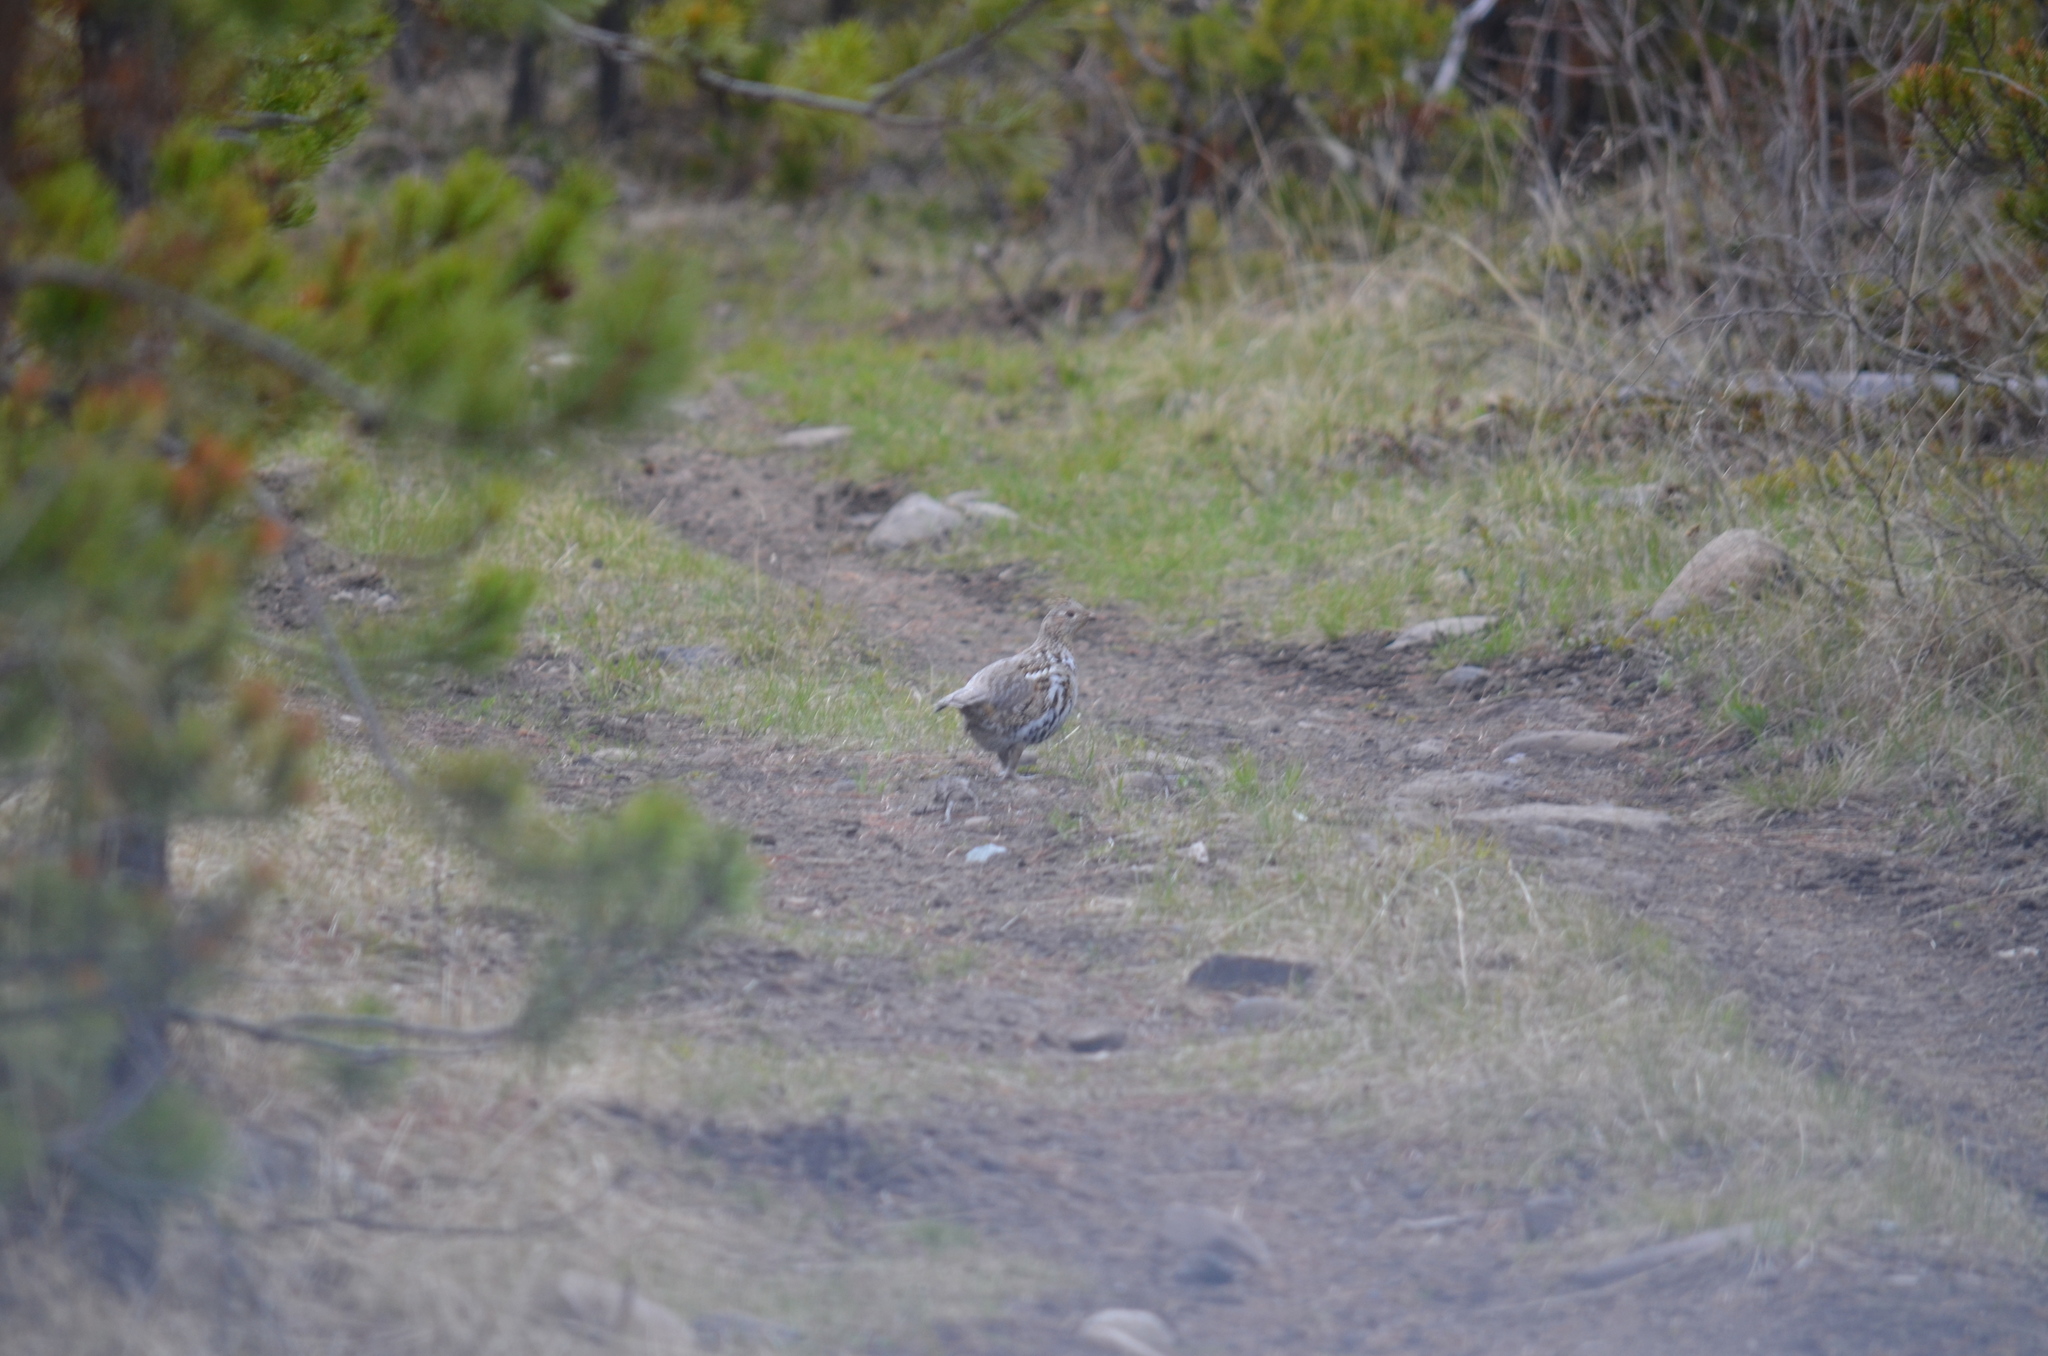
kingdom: Animalia
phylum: Chordata
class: Aves
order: Galliformes
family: Phasianidae
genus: Bonasa
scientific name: Bonasa umbellus
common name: Ruffed grouse
